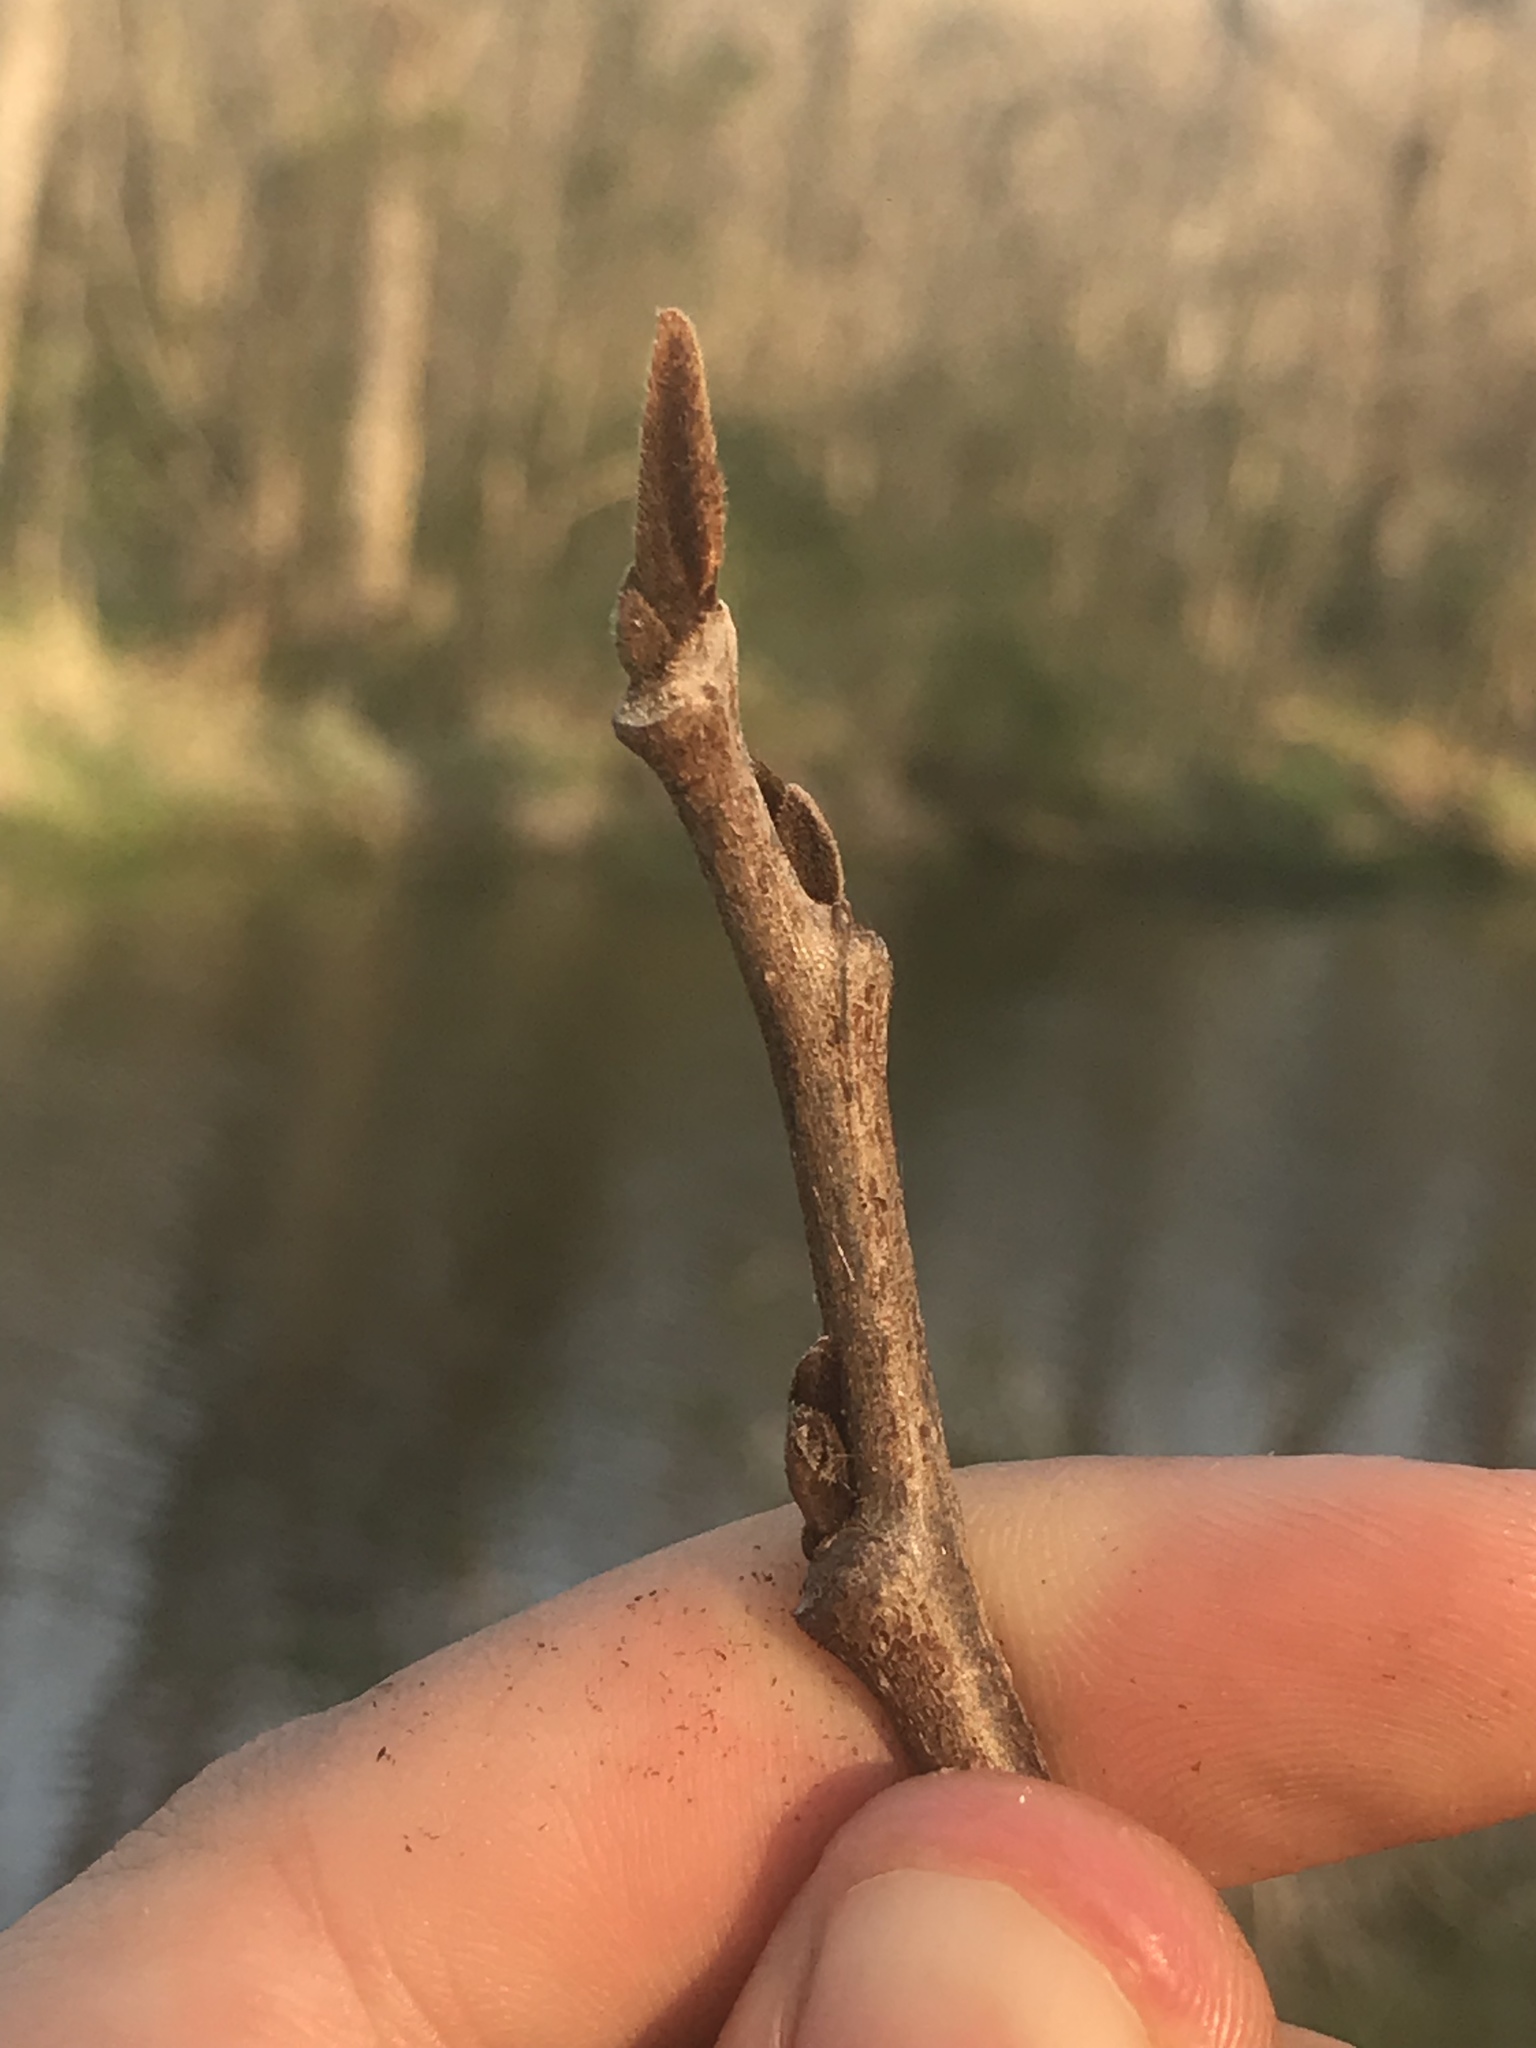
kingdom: Plantae
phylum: Tracheophyta
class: Magnoliopsida
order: Magnoliales
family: Annonaceae
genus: Asimina
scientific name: Asimina triloba
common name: Dog-banana
